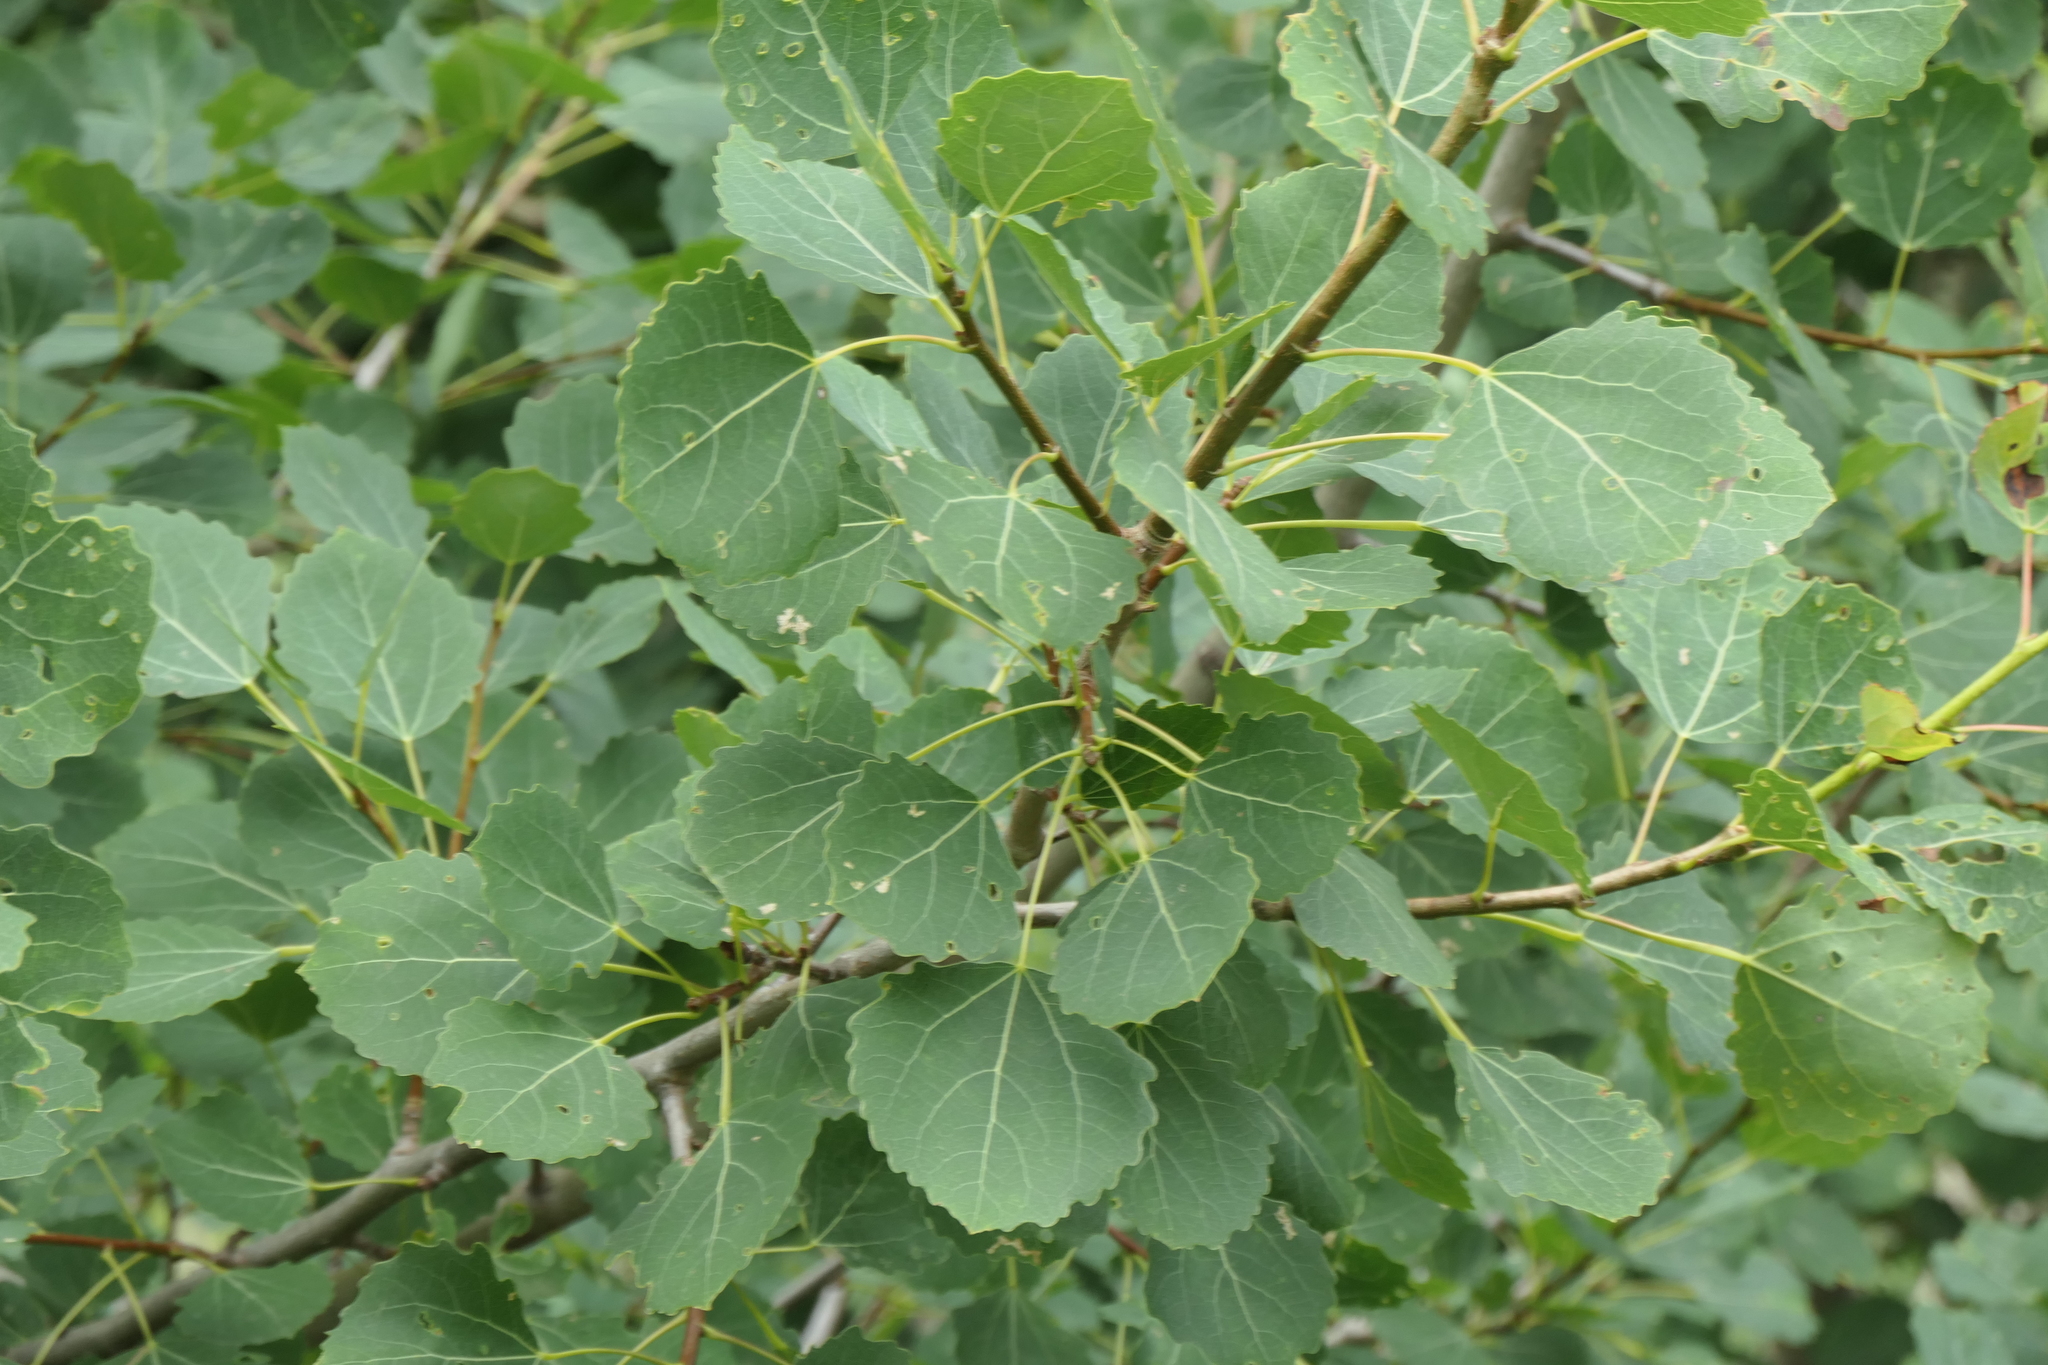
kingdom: Plantae
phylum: Tracheophyta
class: Magnoliopsida
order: Malpighiales
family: Salicaceae
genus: Populus
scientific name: Populus tremula
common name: European aspen
